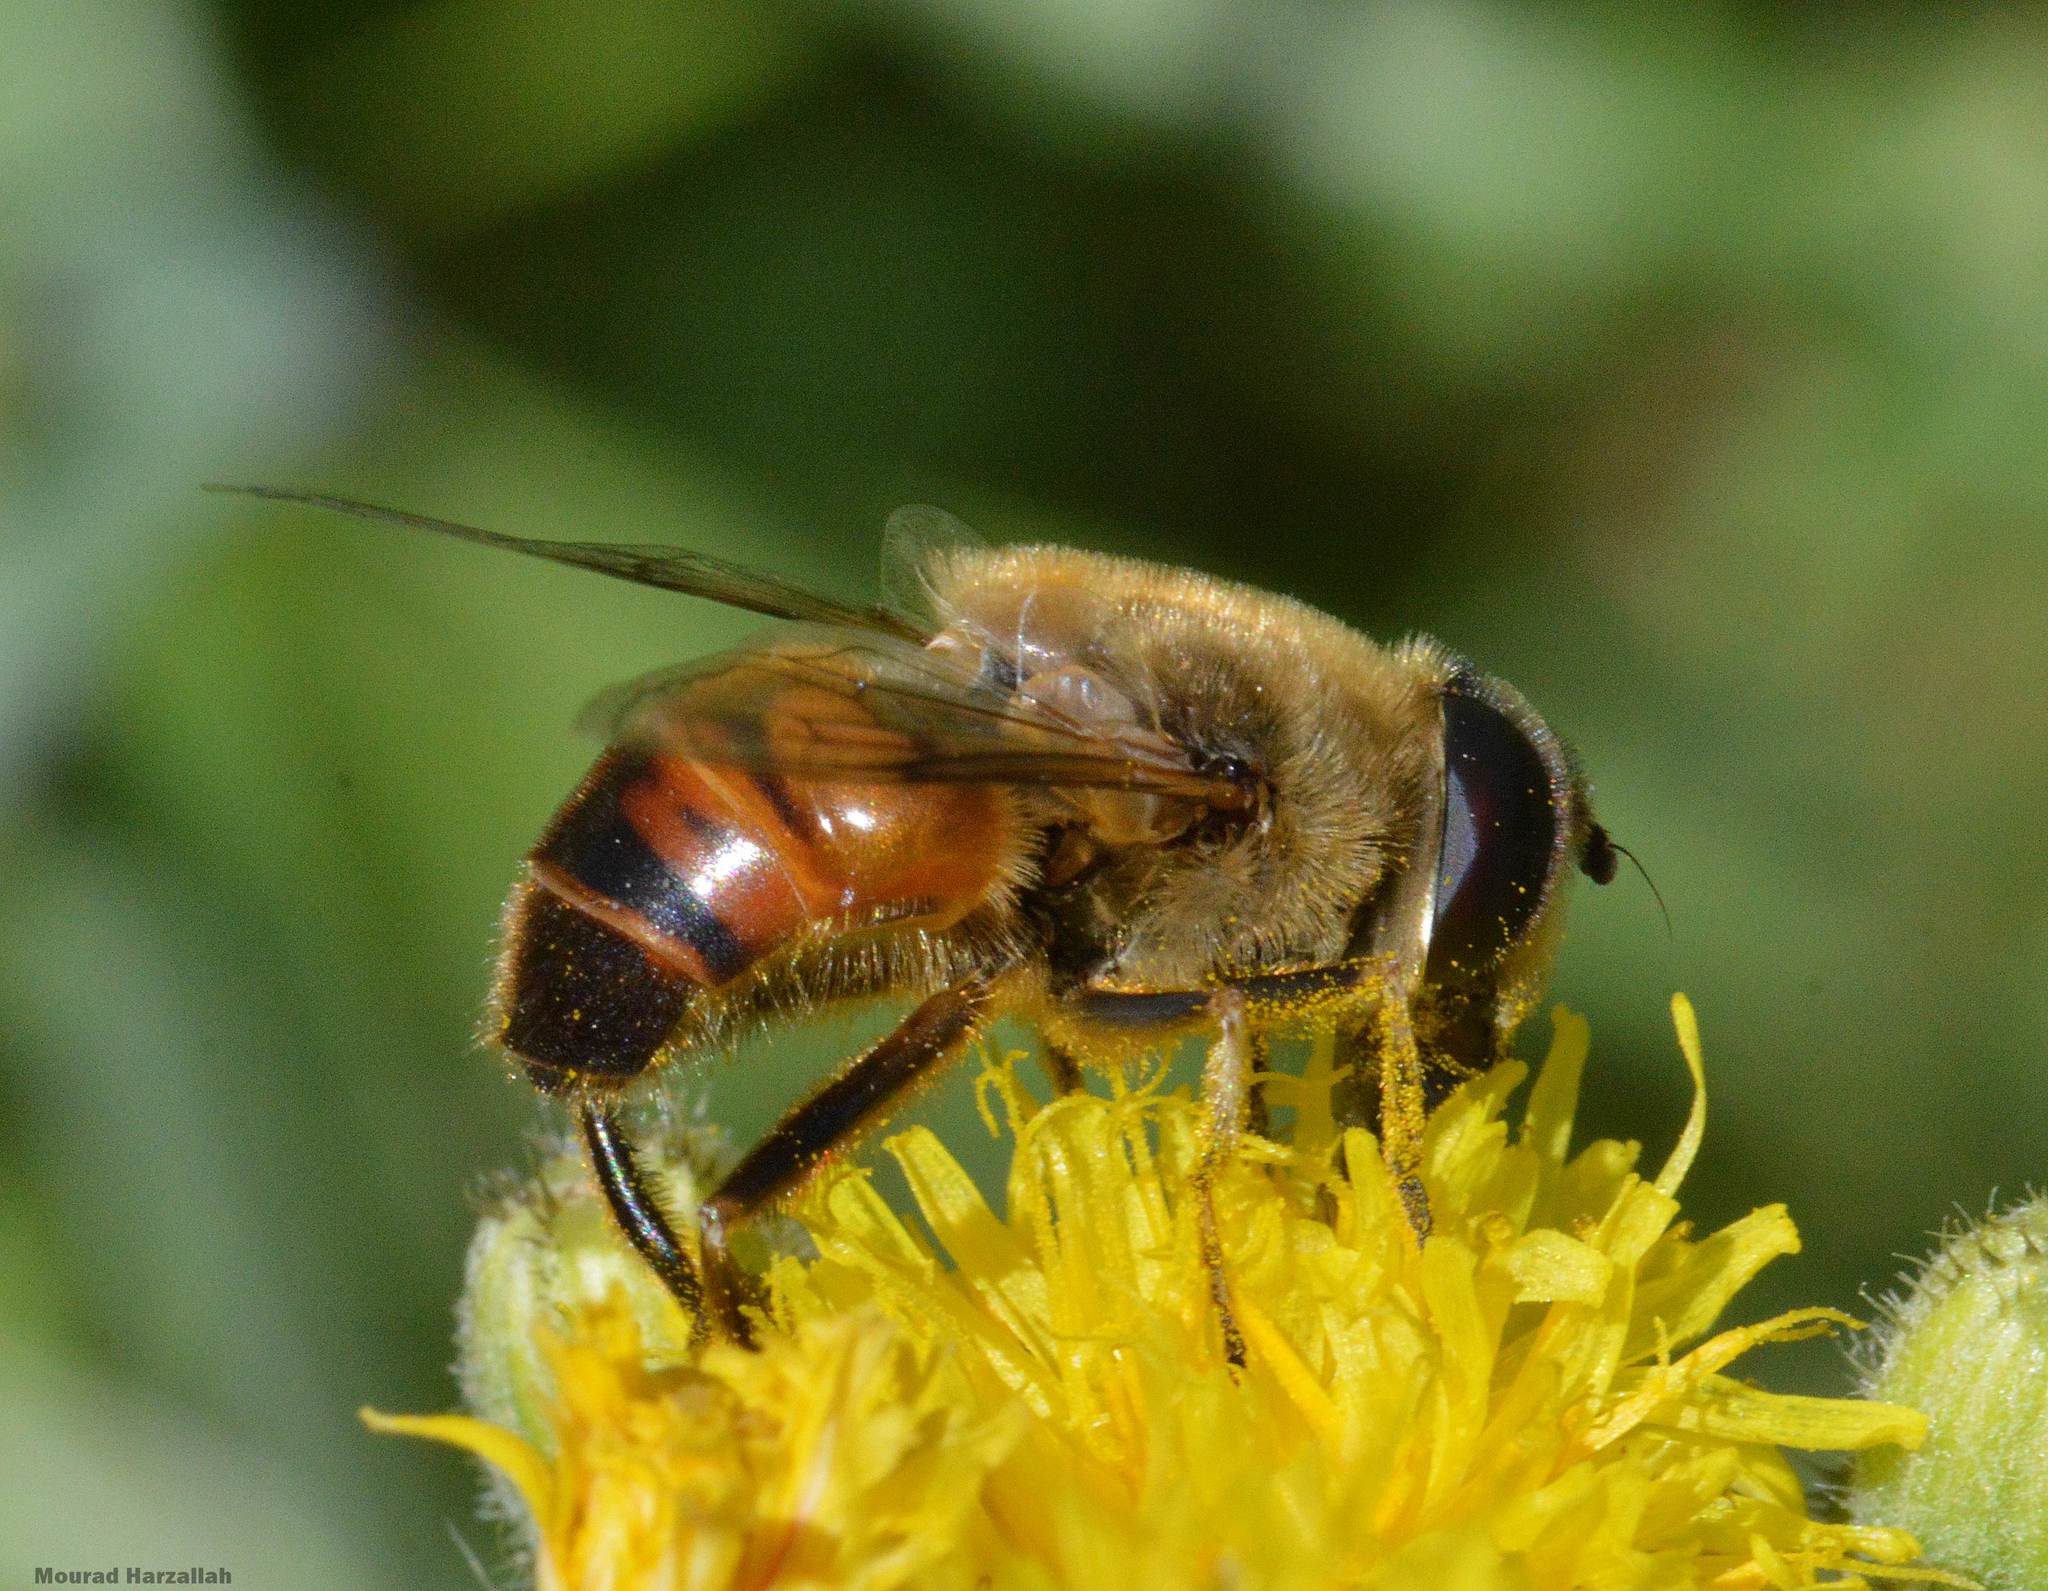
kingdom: Animalia
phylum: Arthropoda
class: Insecta
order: Diptera
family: Syrphidae
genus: Eristalis
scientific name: Eristalis tenax
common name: Drone fly
